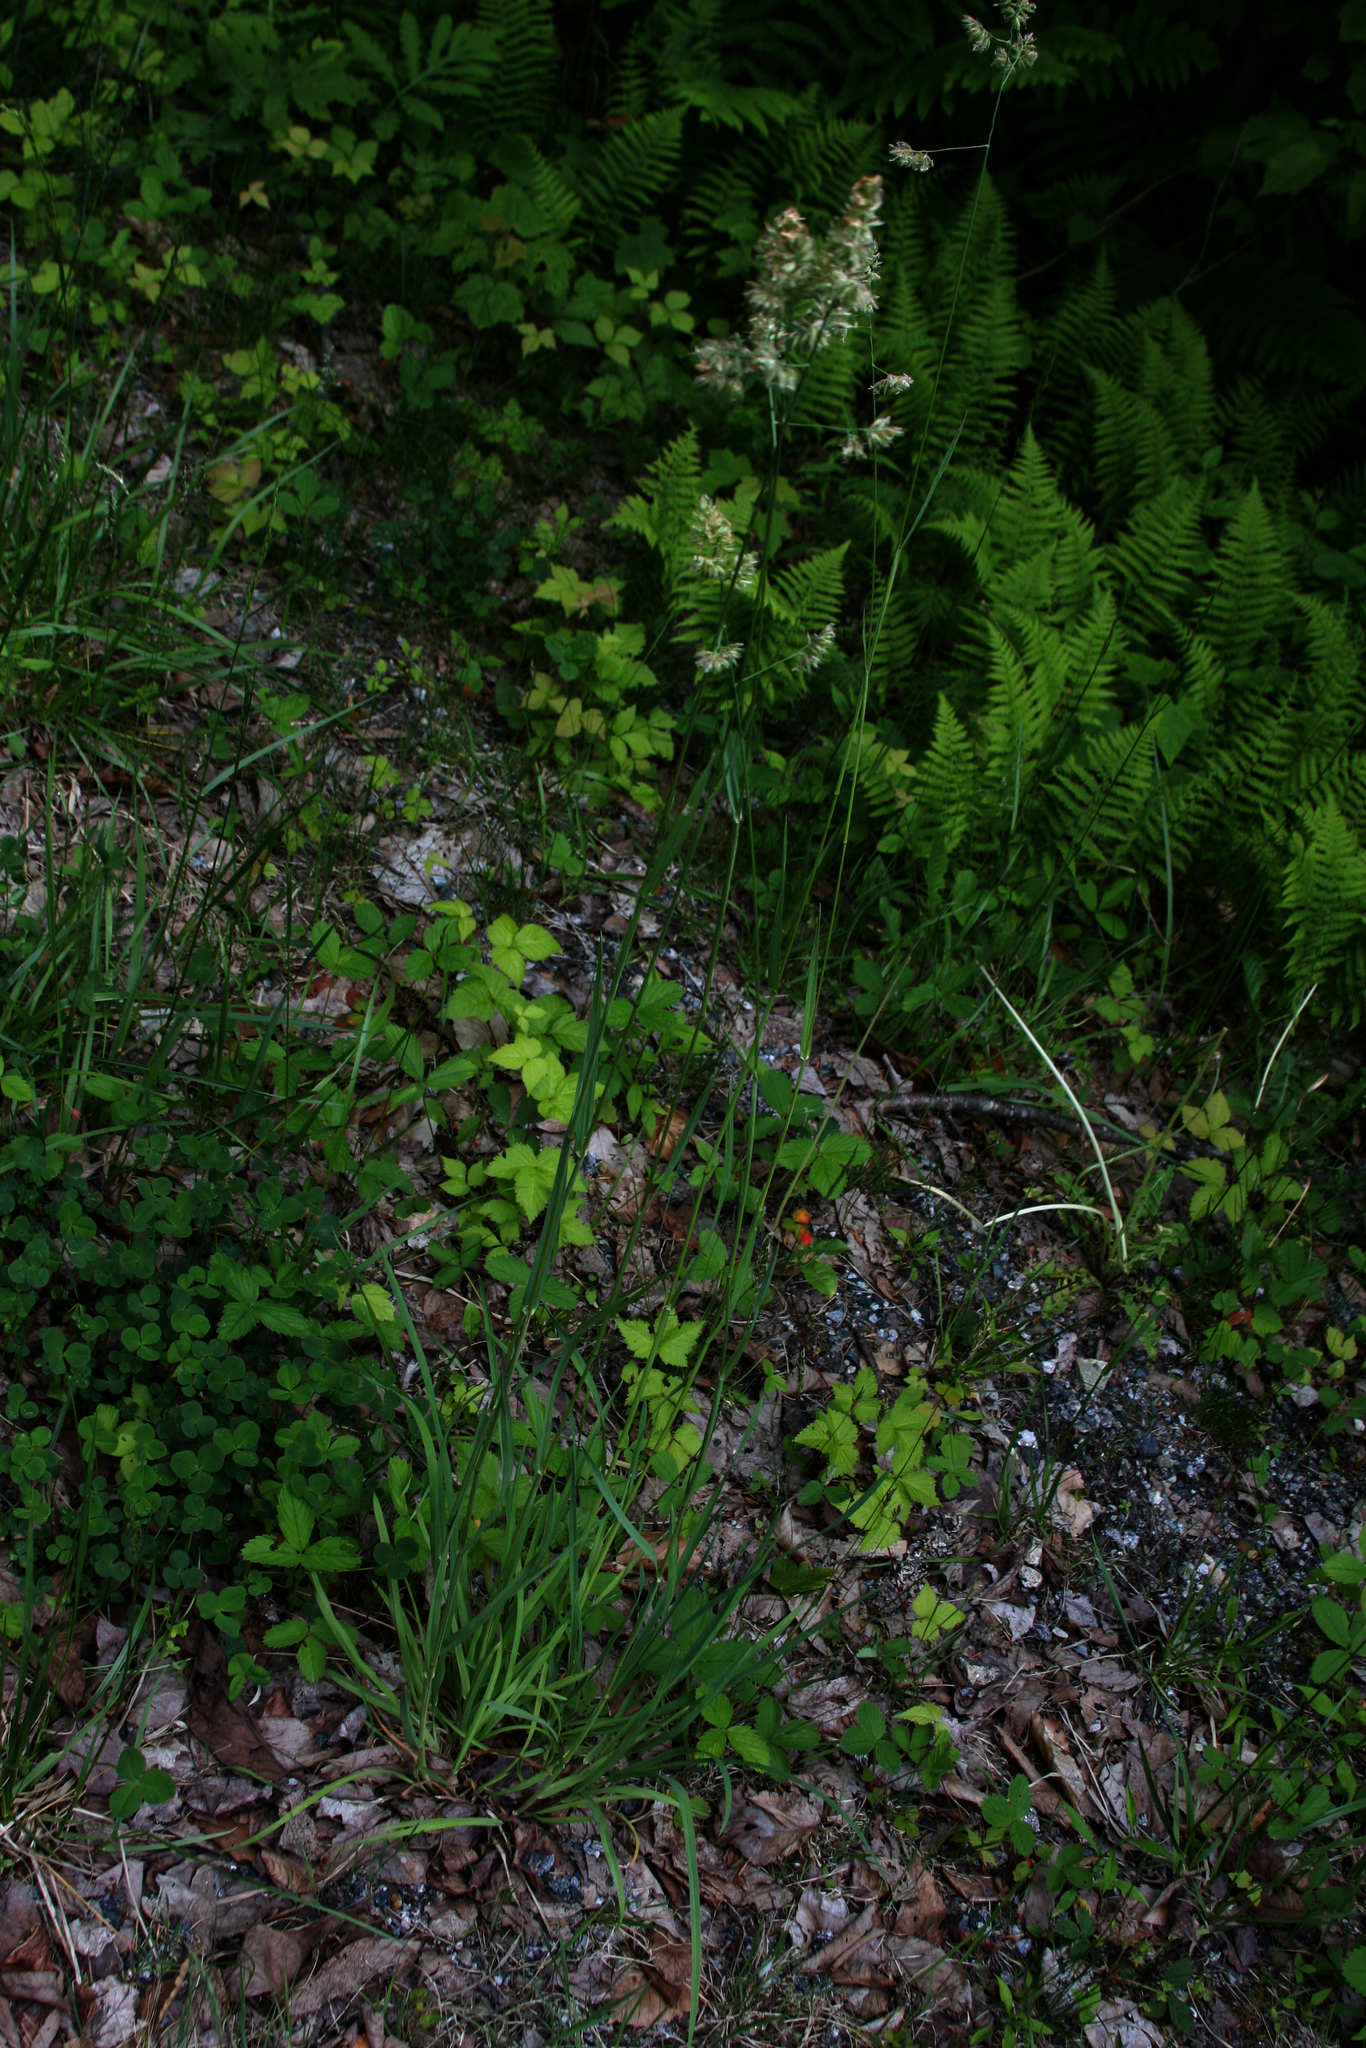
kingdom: Plantae
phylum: Tracheophyta
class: Liliopsida
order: Poales
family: Poaceae
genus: Dactylis
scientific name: Dactylis glomerata
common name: Orchardgrass
